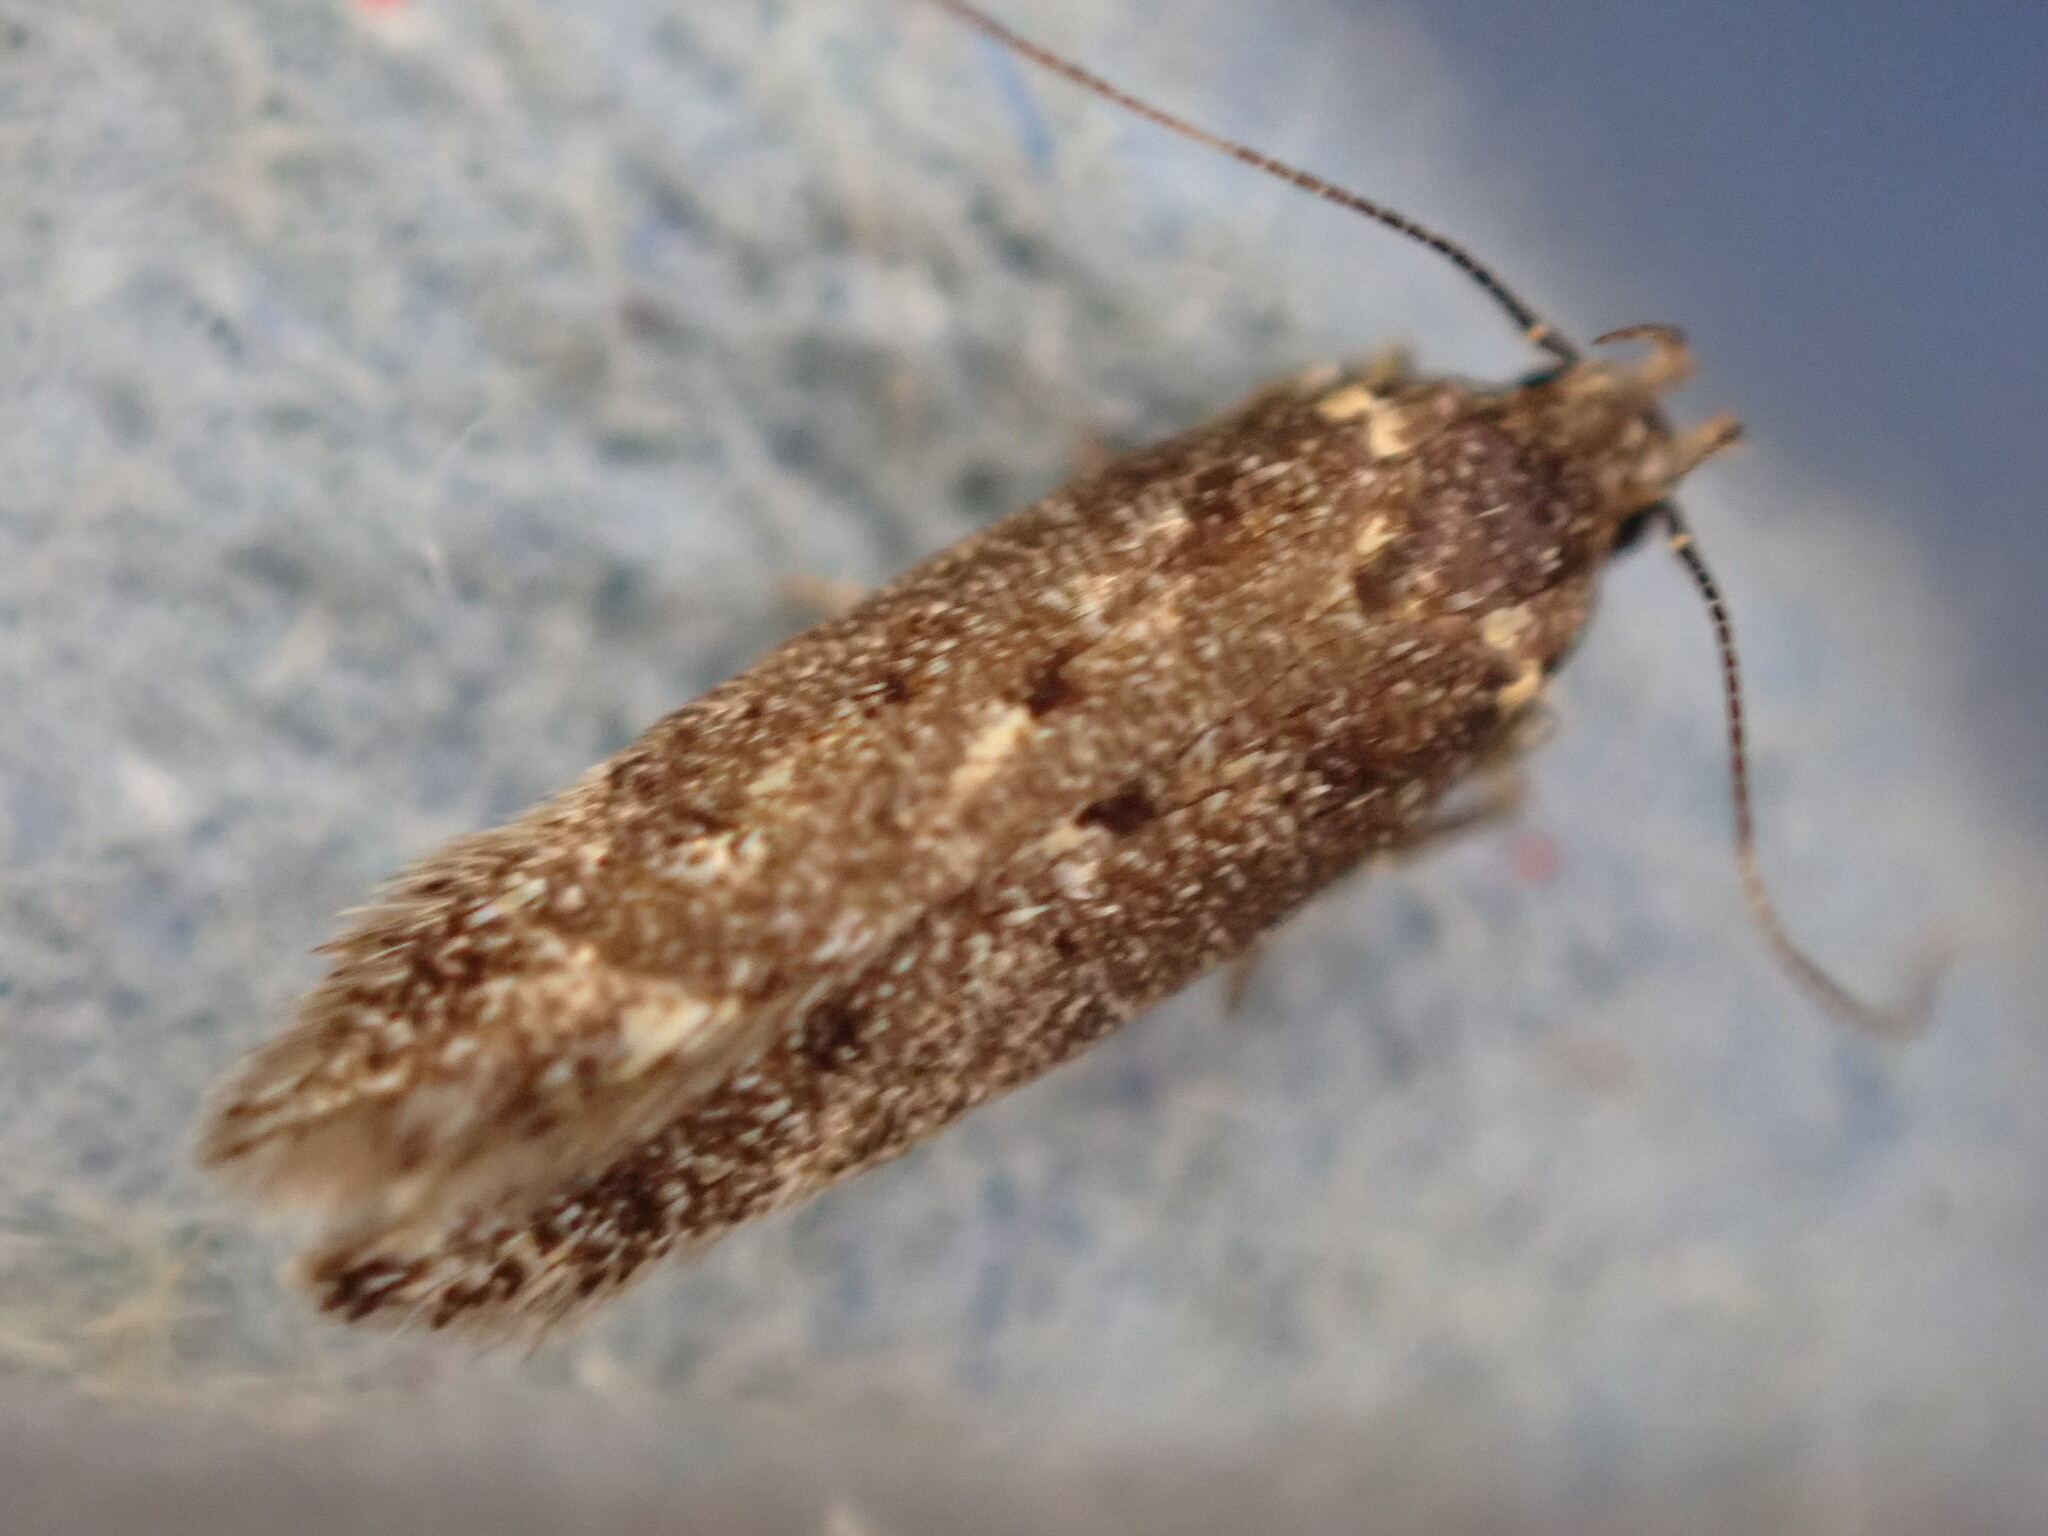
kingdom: Animalia
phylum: Arthropoda
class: Insecta
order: Lepidoptera
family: Gelechiidae
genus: Bryotropha
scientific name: Bryotropha affinis
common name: Dark groundling
